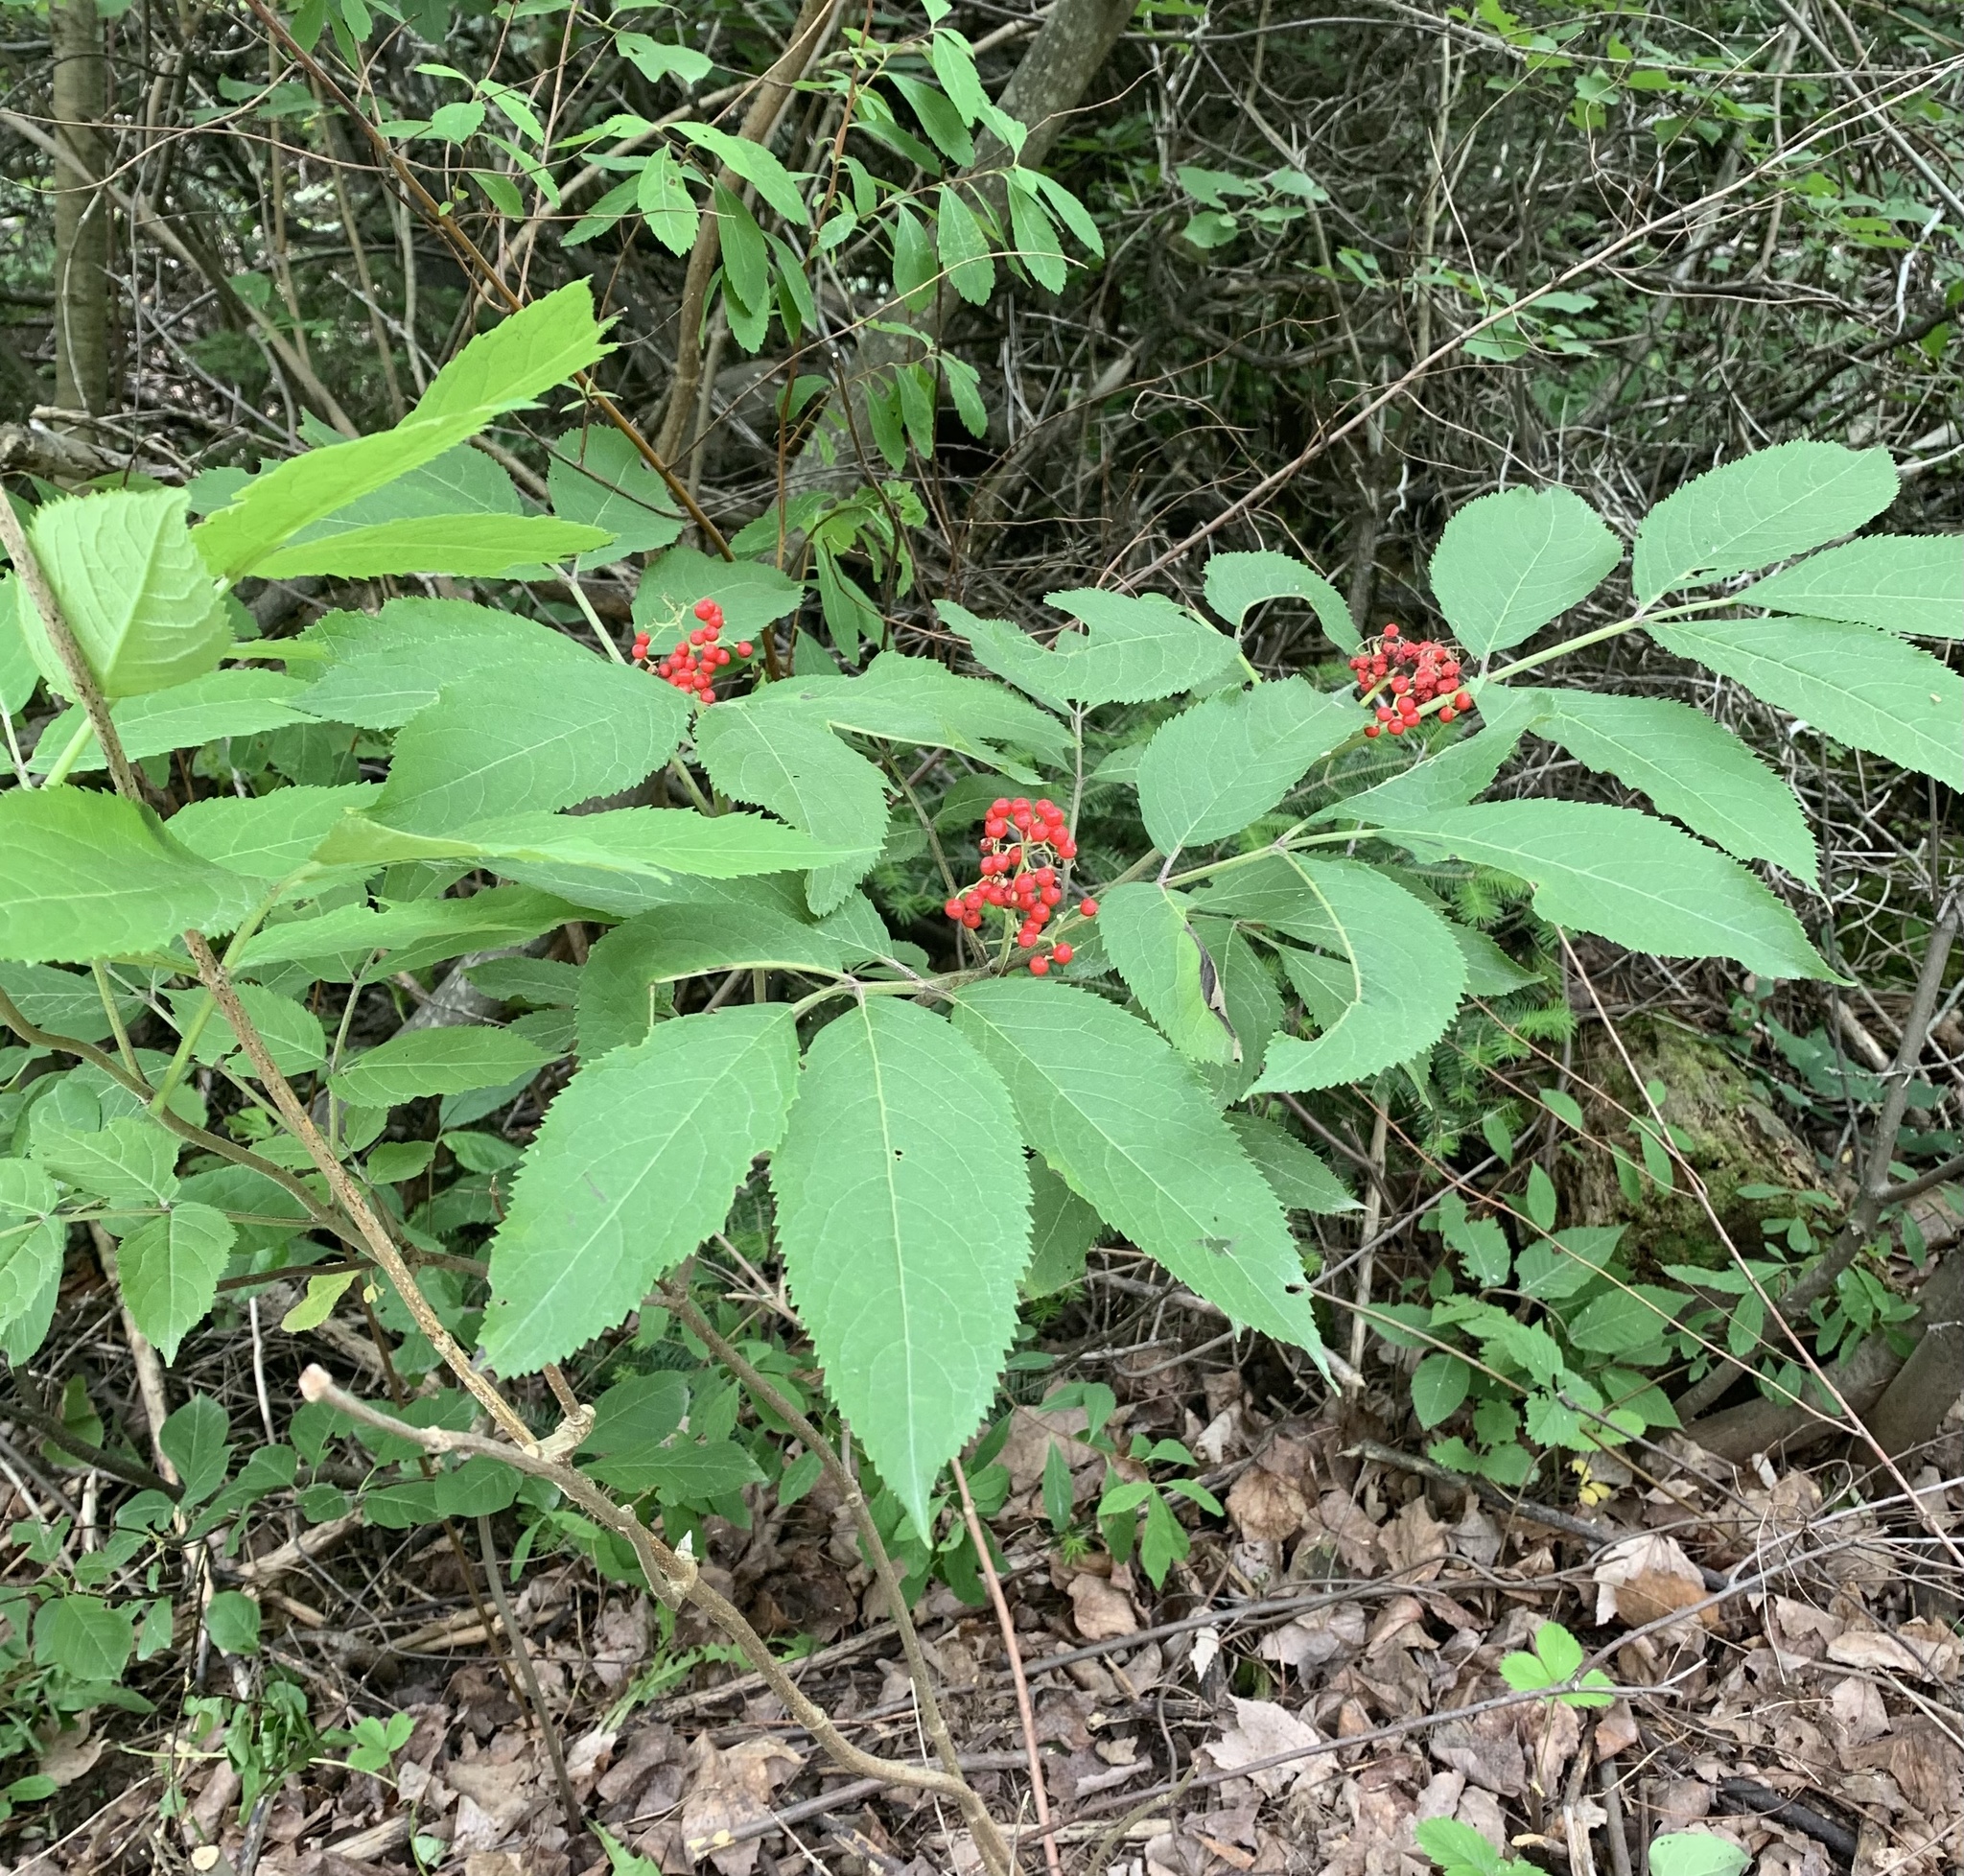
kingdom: Plantae
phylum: Tracheophyta
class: Magnoliopsida
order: Dipsacales
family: Viburnaceae
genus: Sambucus
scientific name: Sambucus racemosa
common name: Red-berried elder
